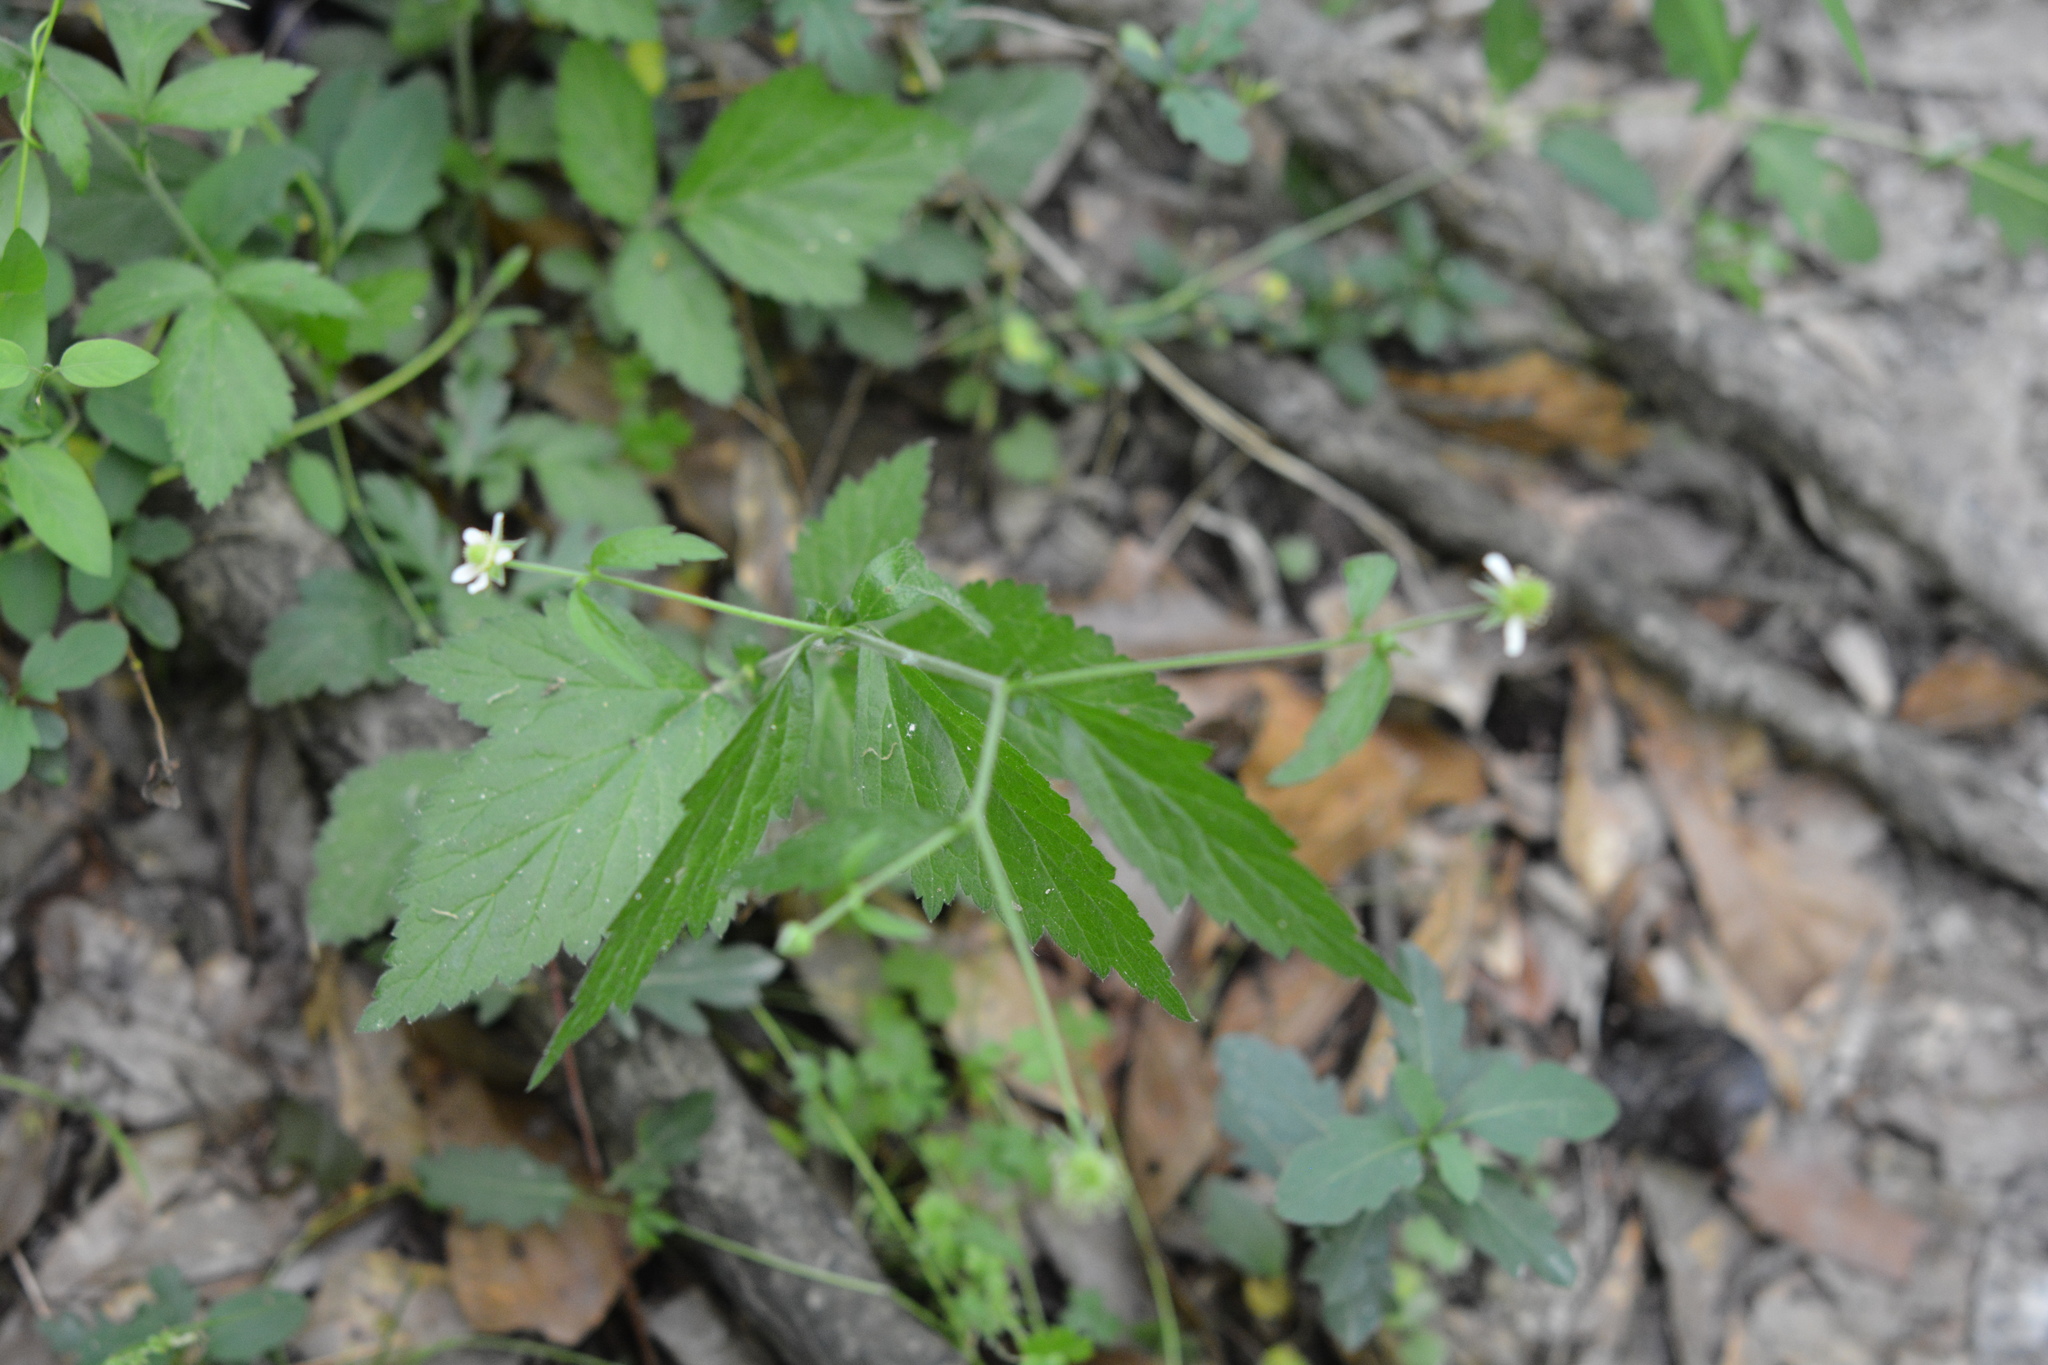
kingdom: Plantae
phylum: Tracheophyta
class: Magnoliopsida
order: Rosales
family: Rosaceae
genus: Geum
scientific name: Geum canadense
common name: White avens
